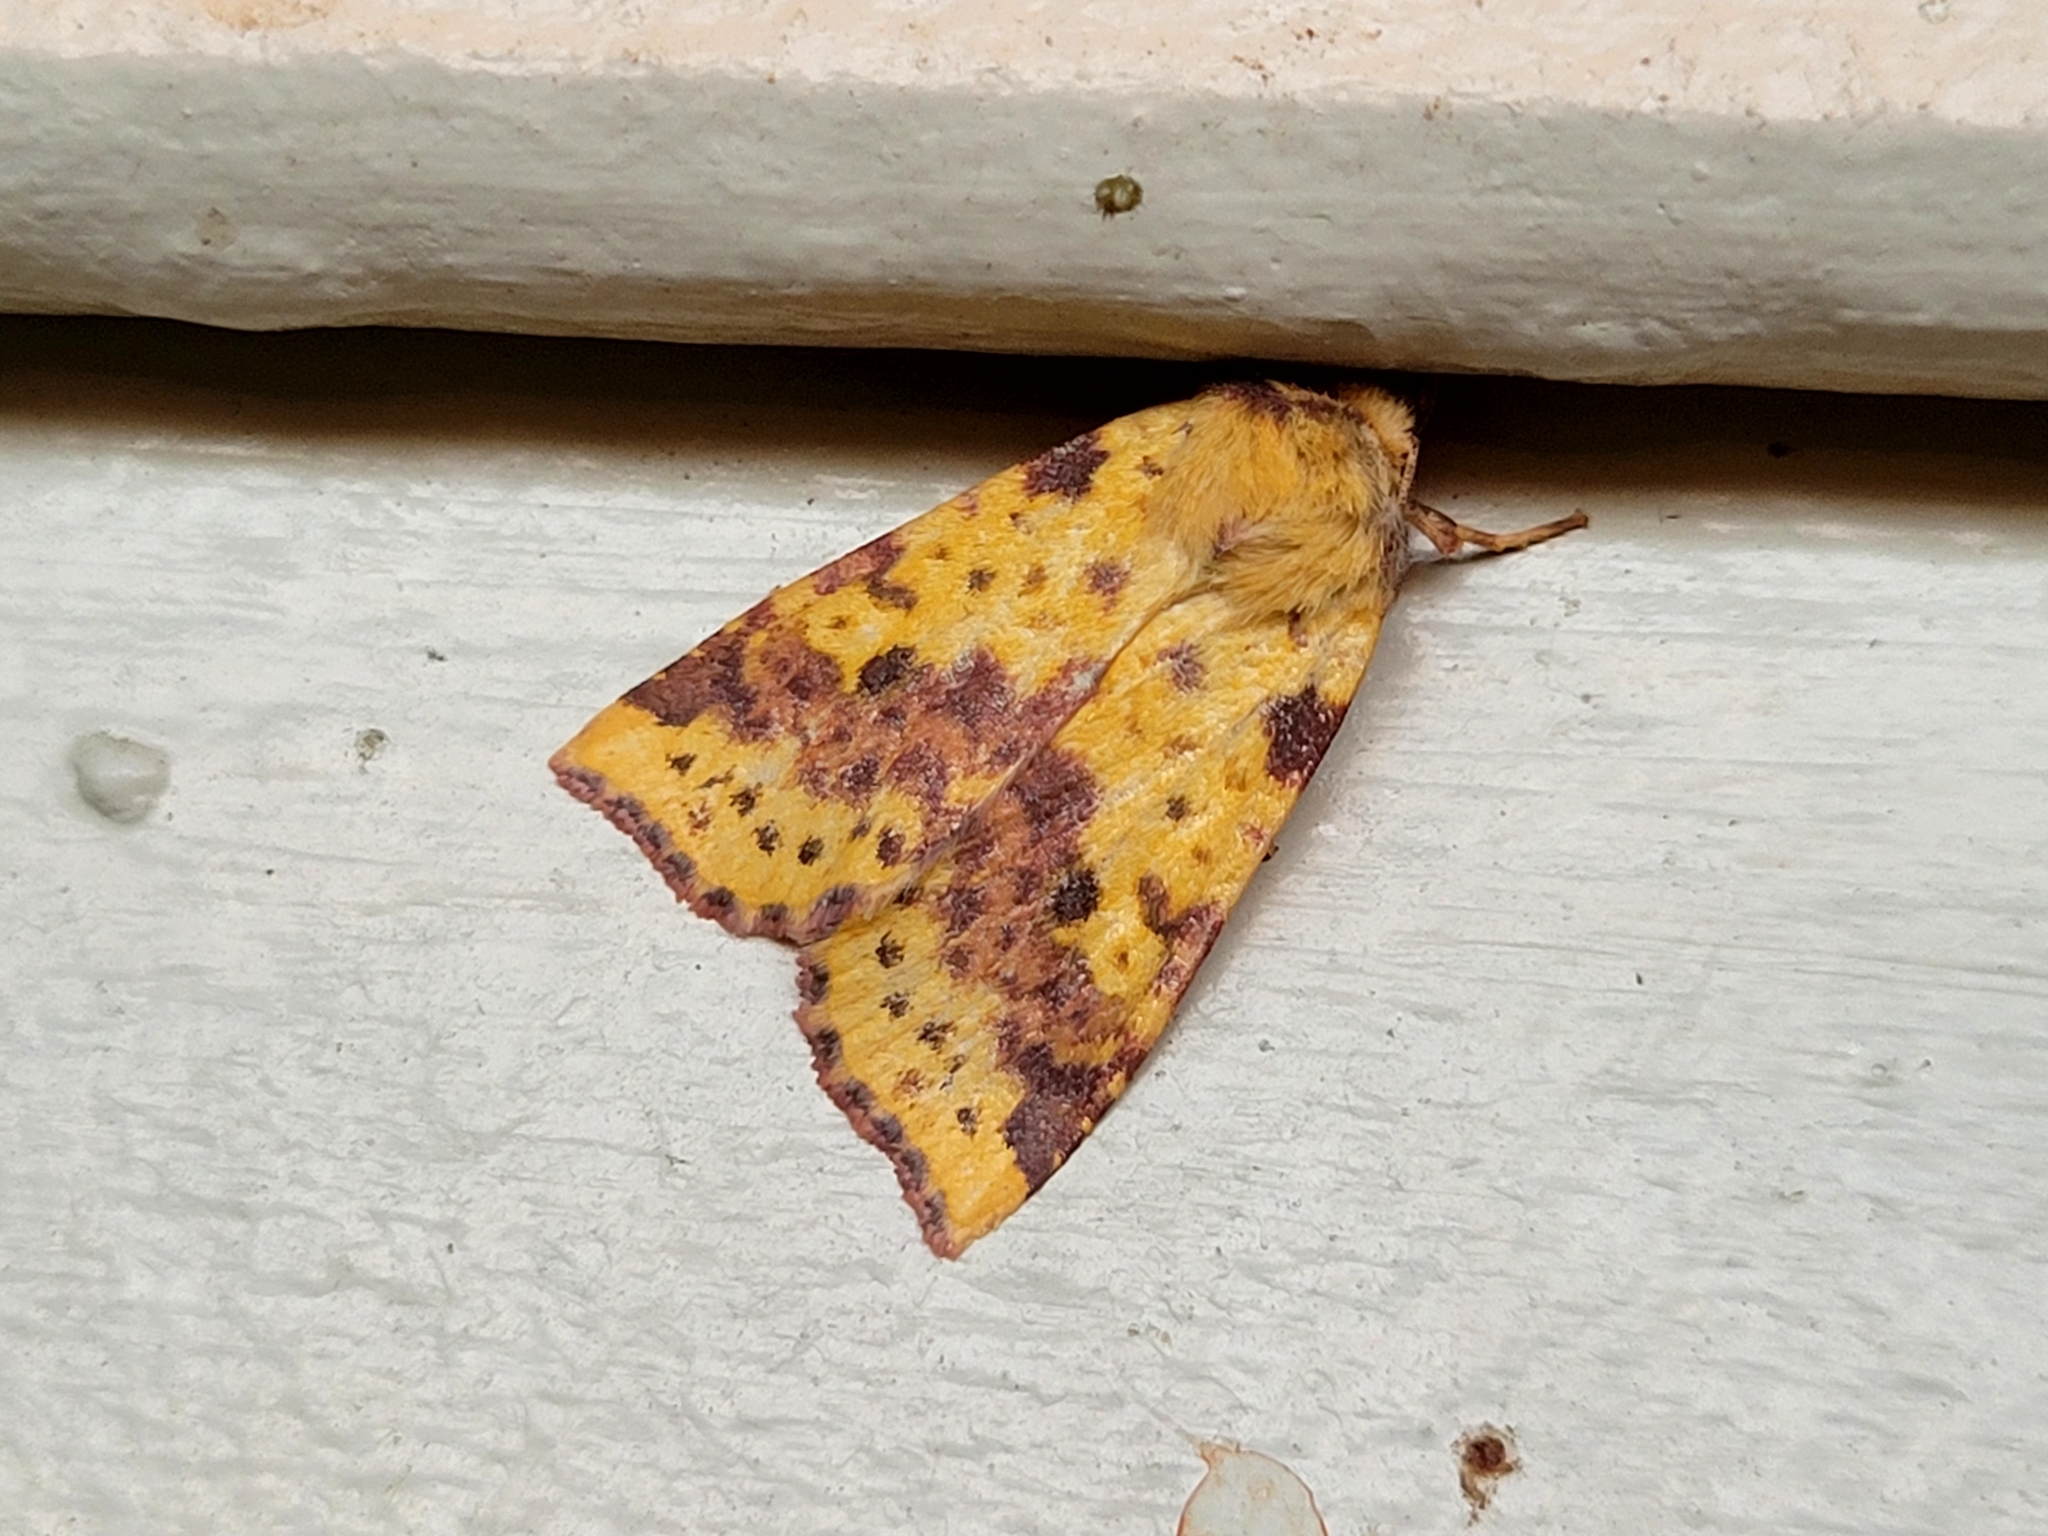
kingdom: Animalia
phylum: Arthropoda
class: Insecta
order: Lepidoptera
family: Noctuidae
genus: Xanthia
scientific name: Xanthia tatago
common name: Pink-banded sallow
